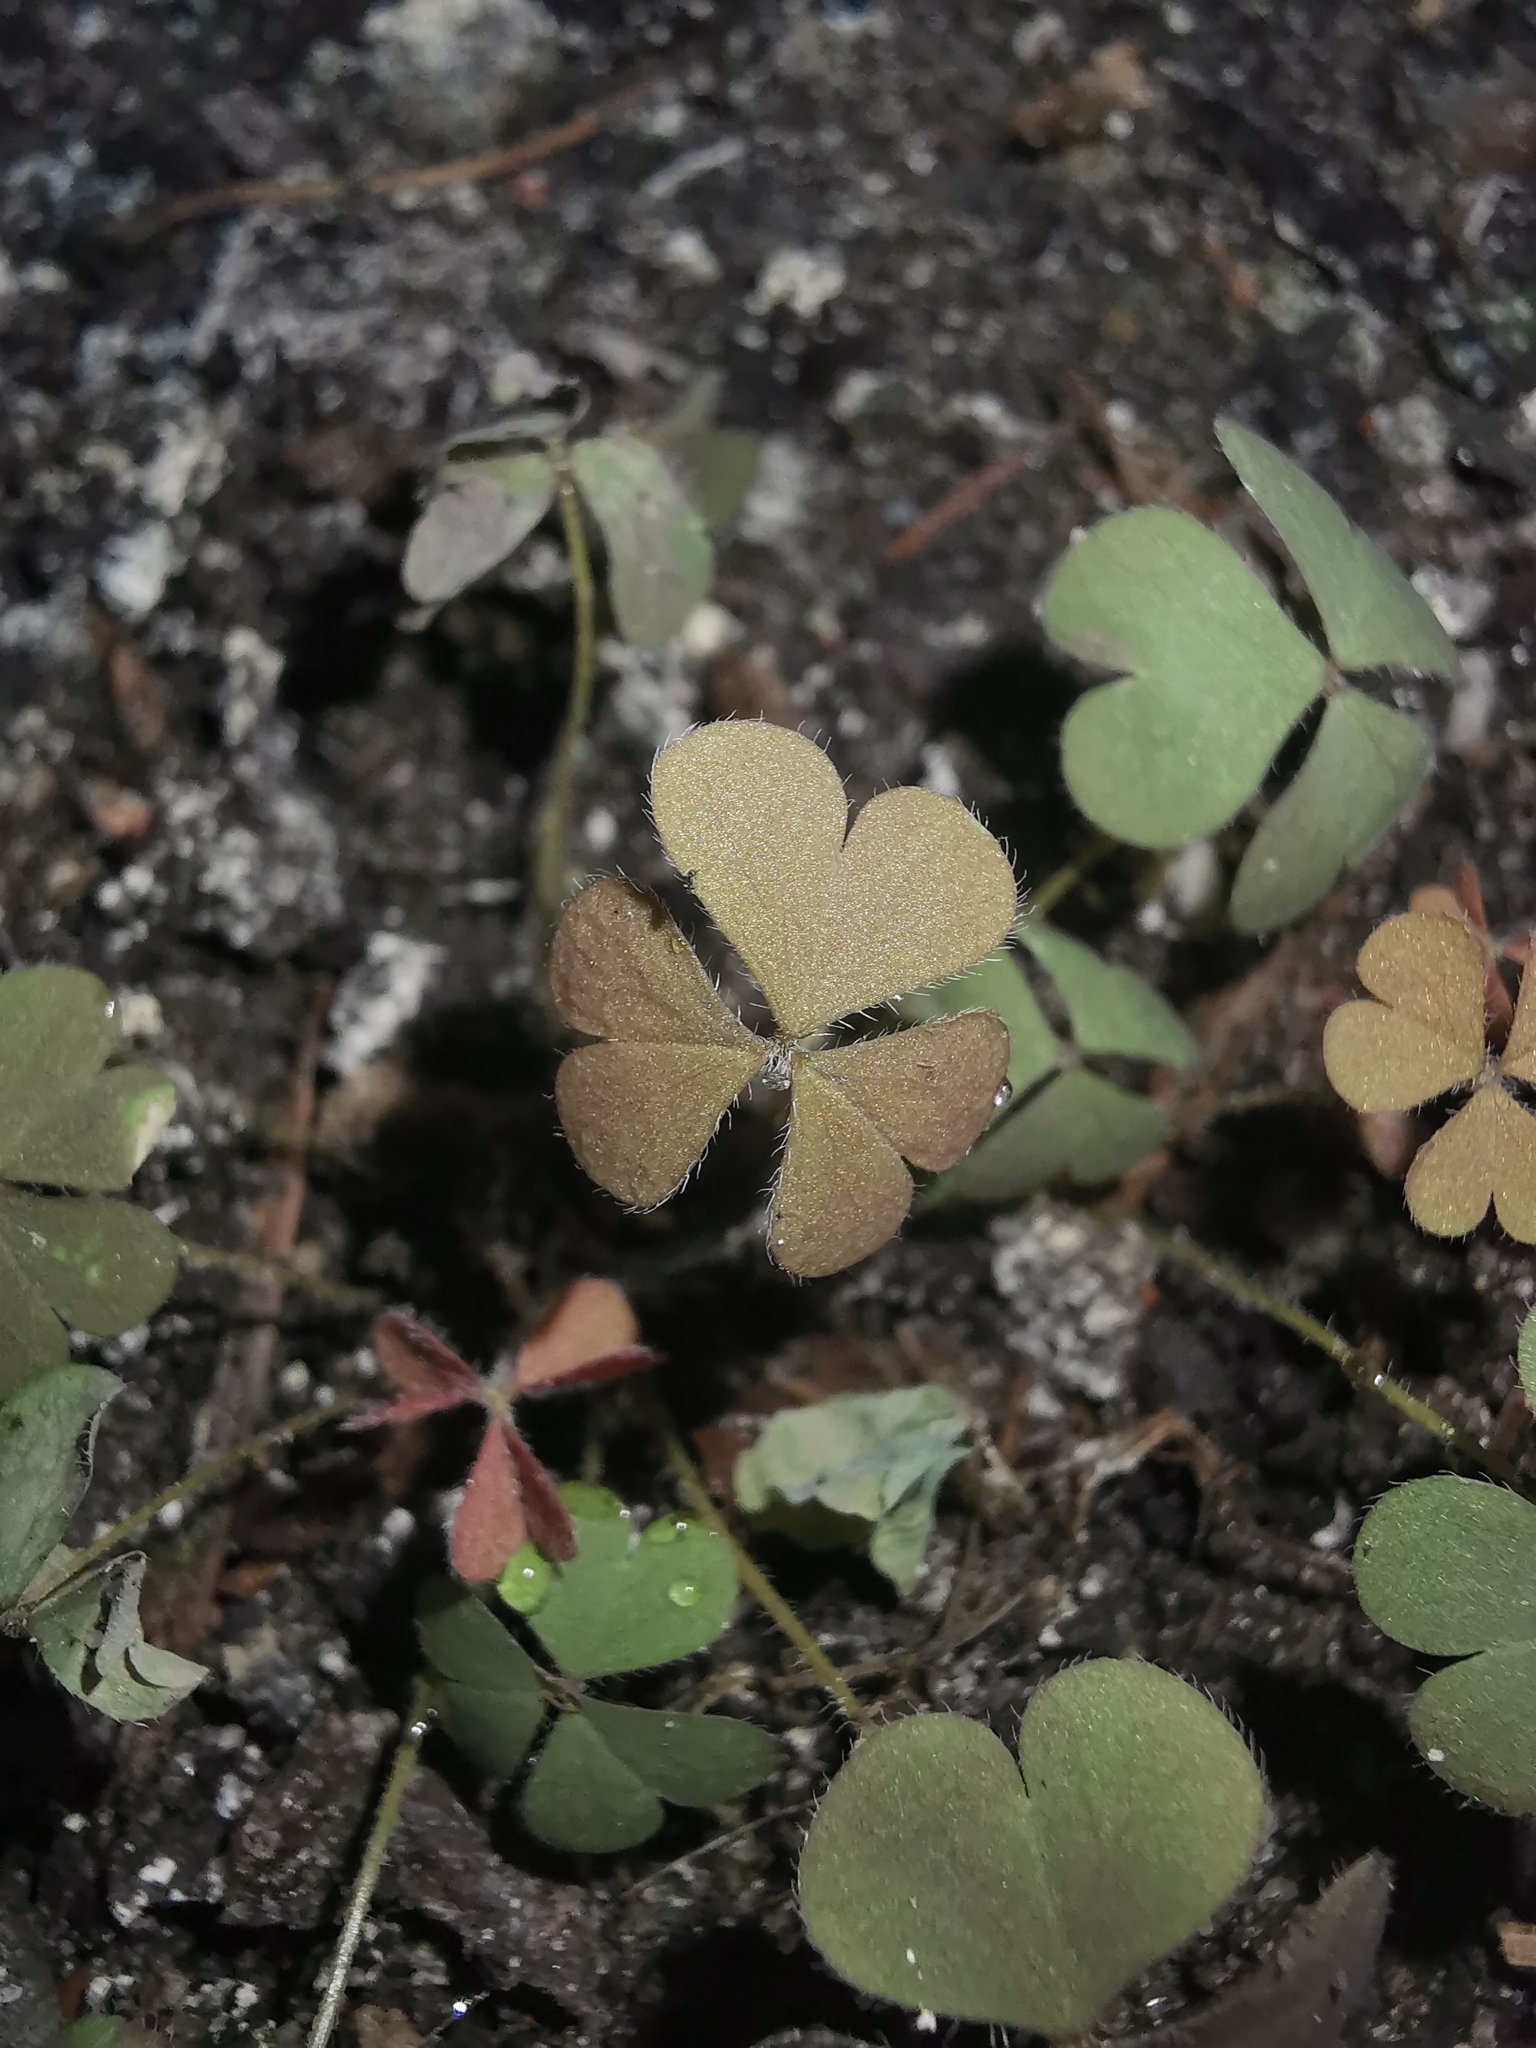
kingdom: Plantae
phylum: Tracheophyta
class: Magnoliopsida
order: Oxalidales
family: Oxalidaceae
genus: Oxalis
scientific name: Oxalis corniculata
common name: Procumbent yellow-sorrel
